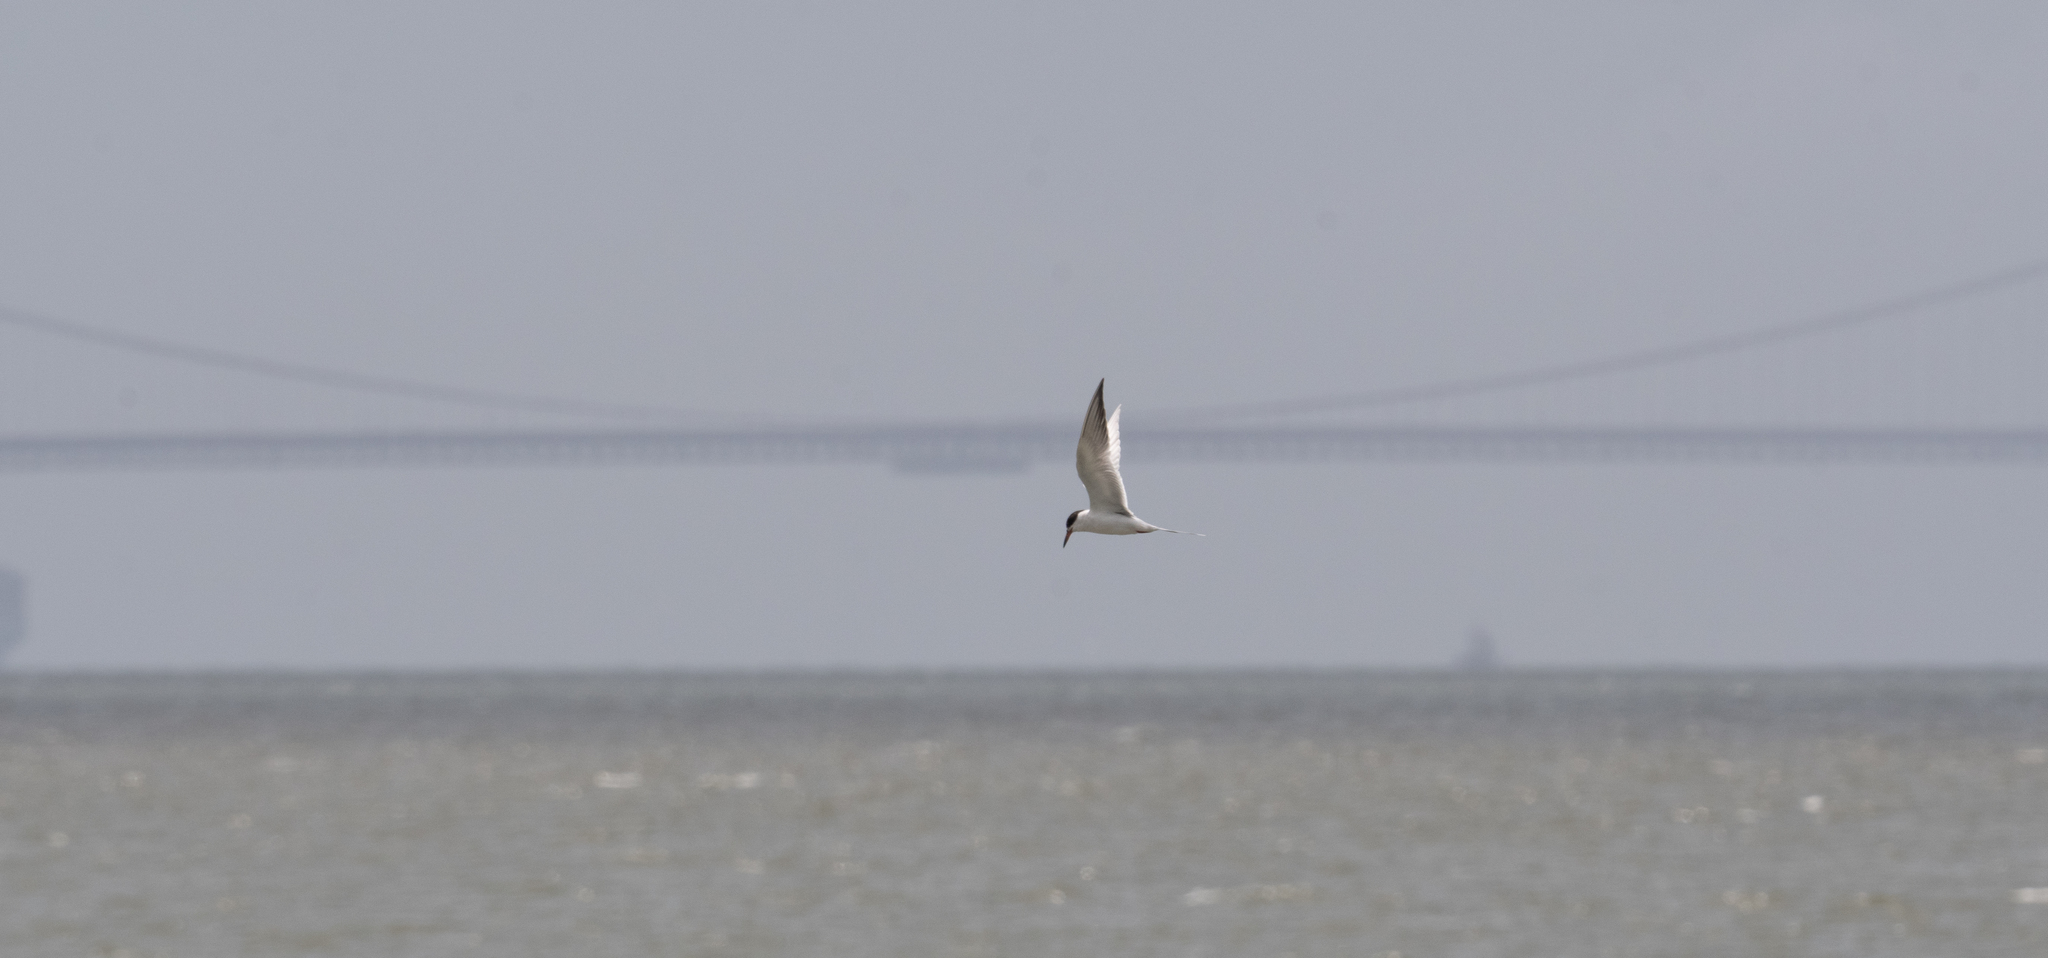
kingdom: Animalia
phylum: Chordata
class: Aves
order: Charadriiformes
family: Laridae
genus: Sterna
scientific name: Sterna forsteri
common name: Forster's tern
